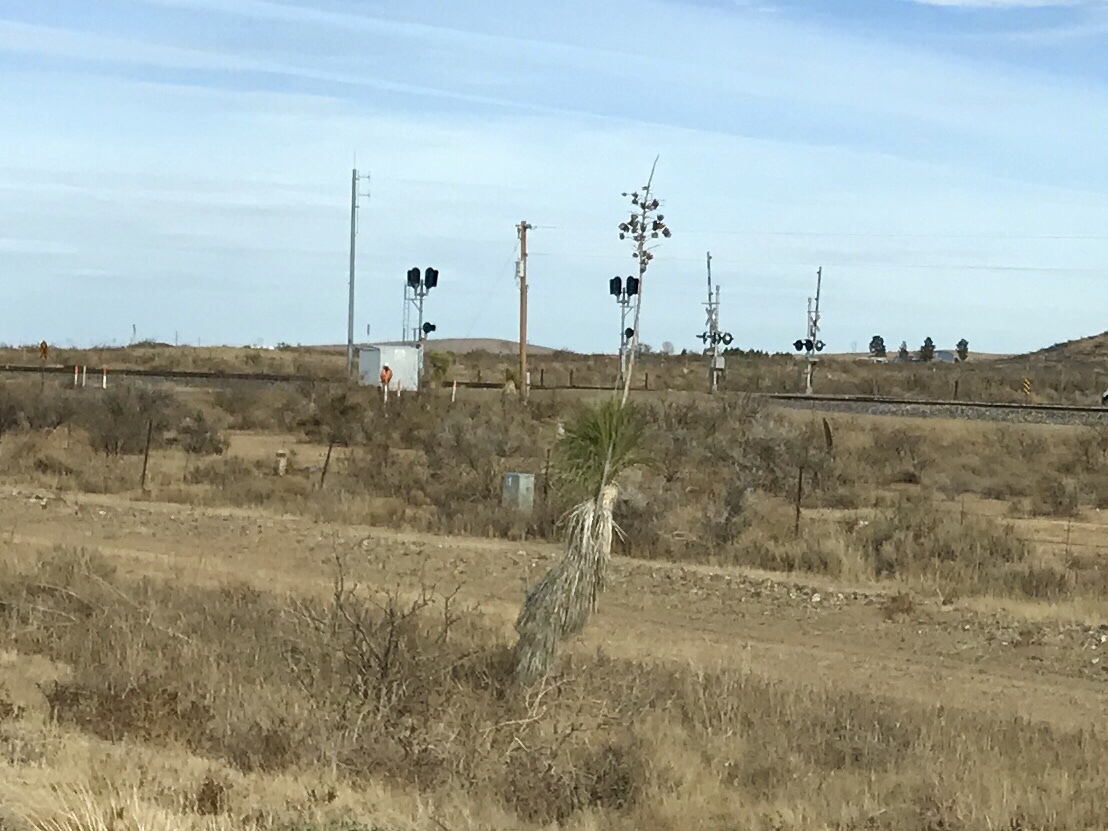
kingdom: Plantae
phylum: Tracheophyta
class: Liliopsida
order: Asparagales
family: Asparagaceae
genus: Yucca
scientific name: Yucca elata
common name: Palmella
